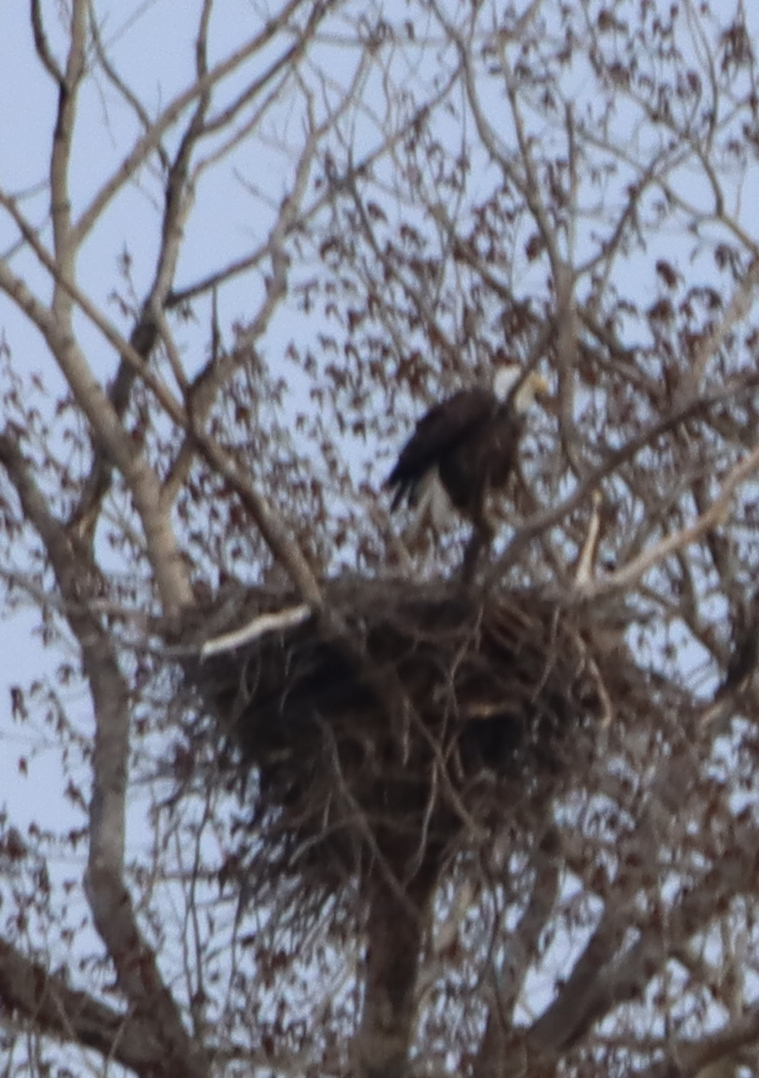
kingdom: Animalia
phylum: Chordata
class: Aves
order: Accipitriformes
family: Accipitridae
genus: Haliaeetus
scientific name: Haliaeetus leucocephalus
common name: Bald eagle
